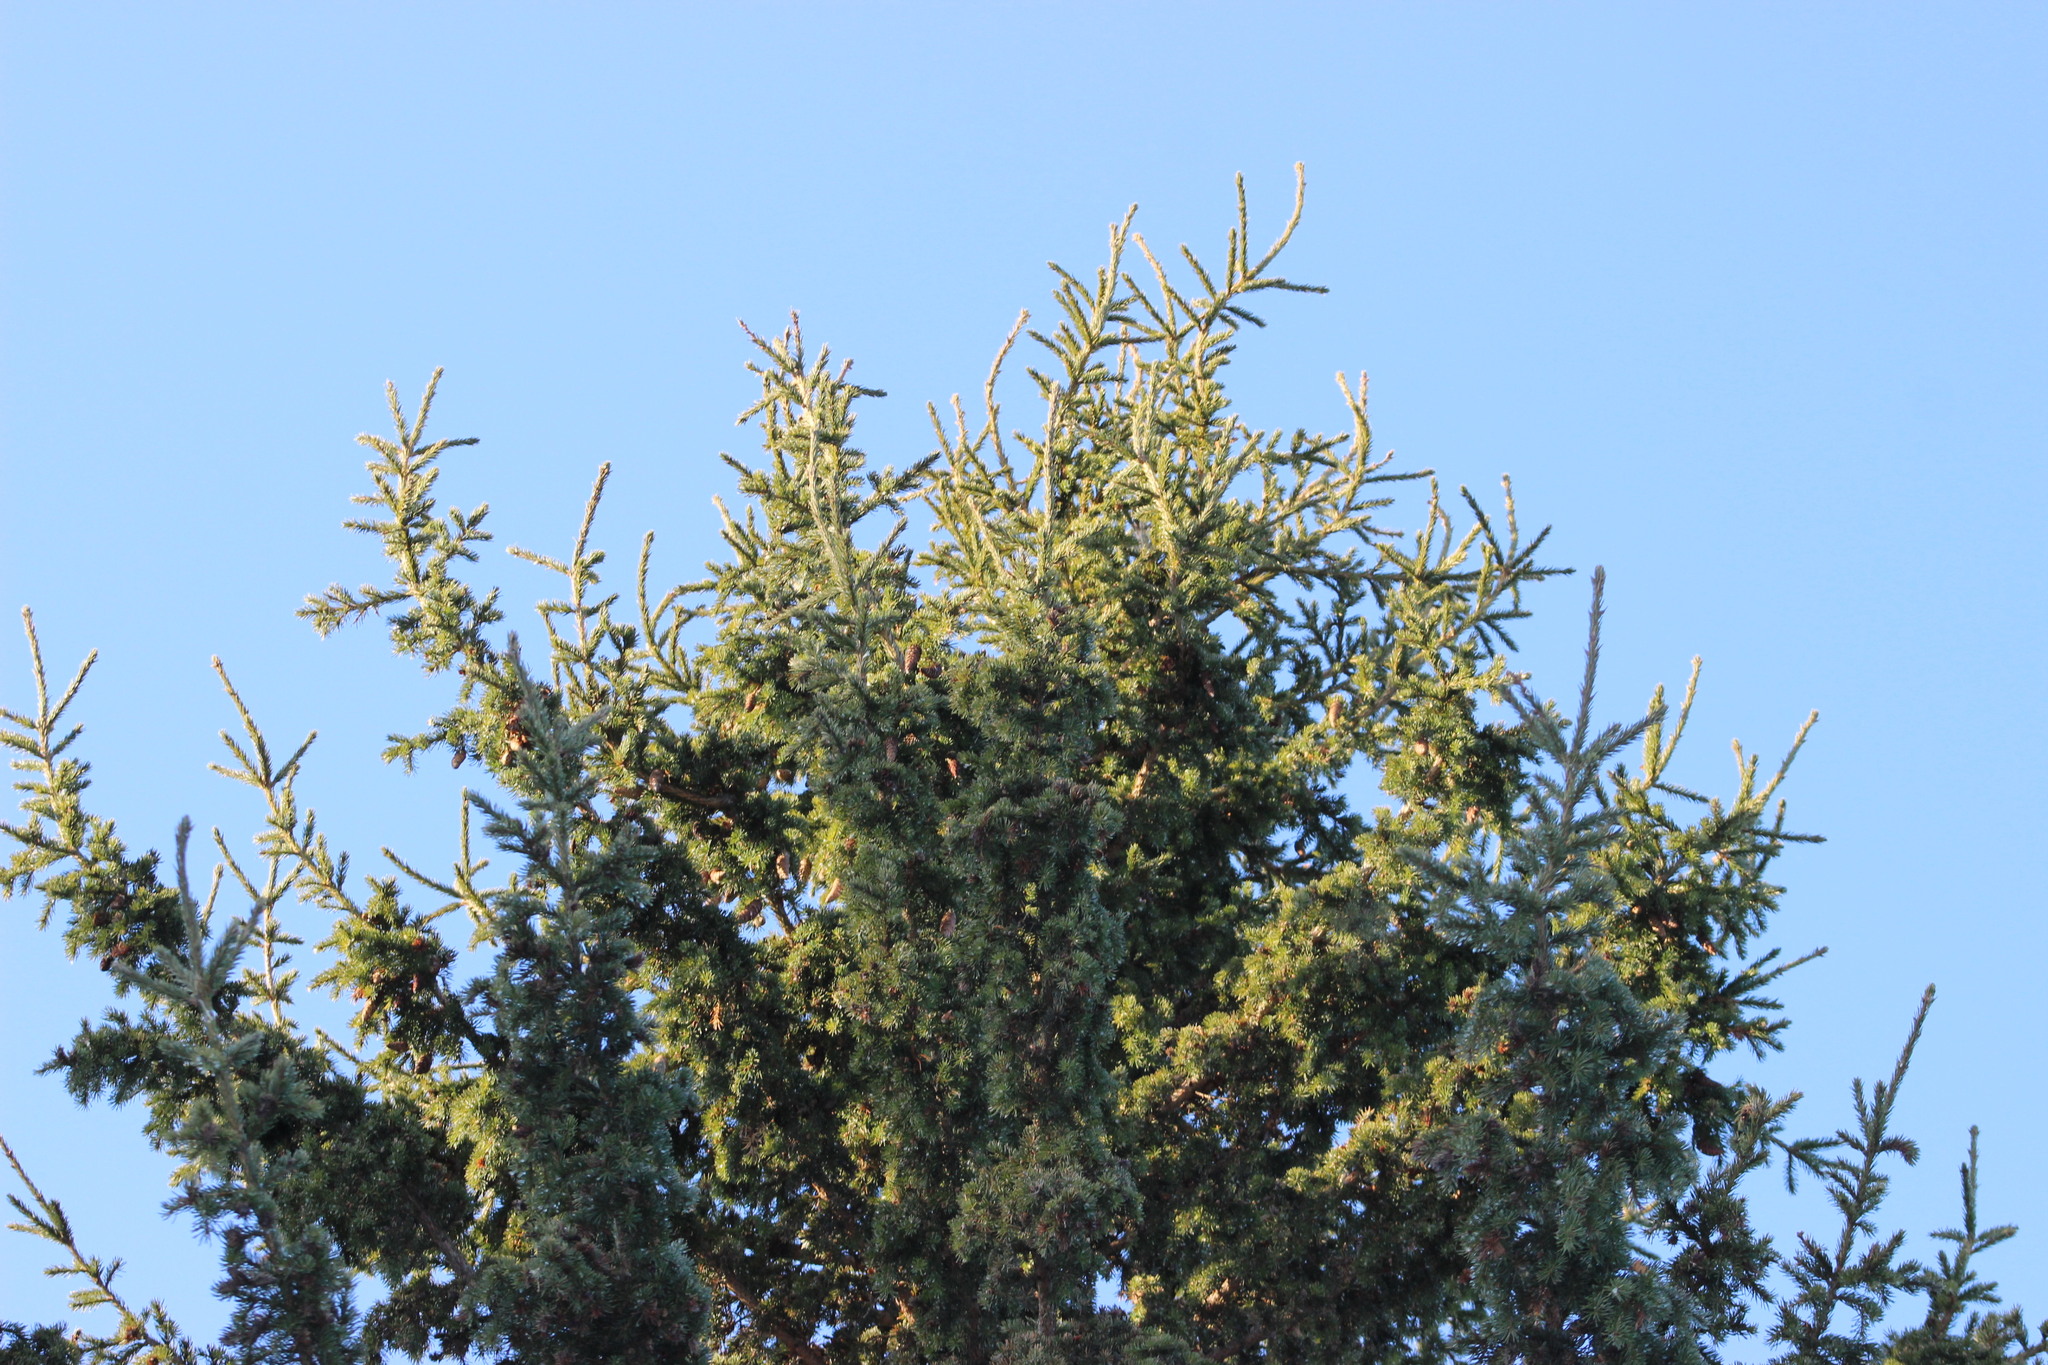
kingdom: Plantae
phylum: Tracheophyta
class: Pinopsida
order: Pinales
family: Pinaceae
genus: Picea
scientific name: Picea obovata
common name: Siberian spruce
